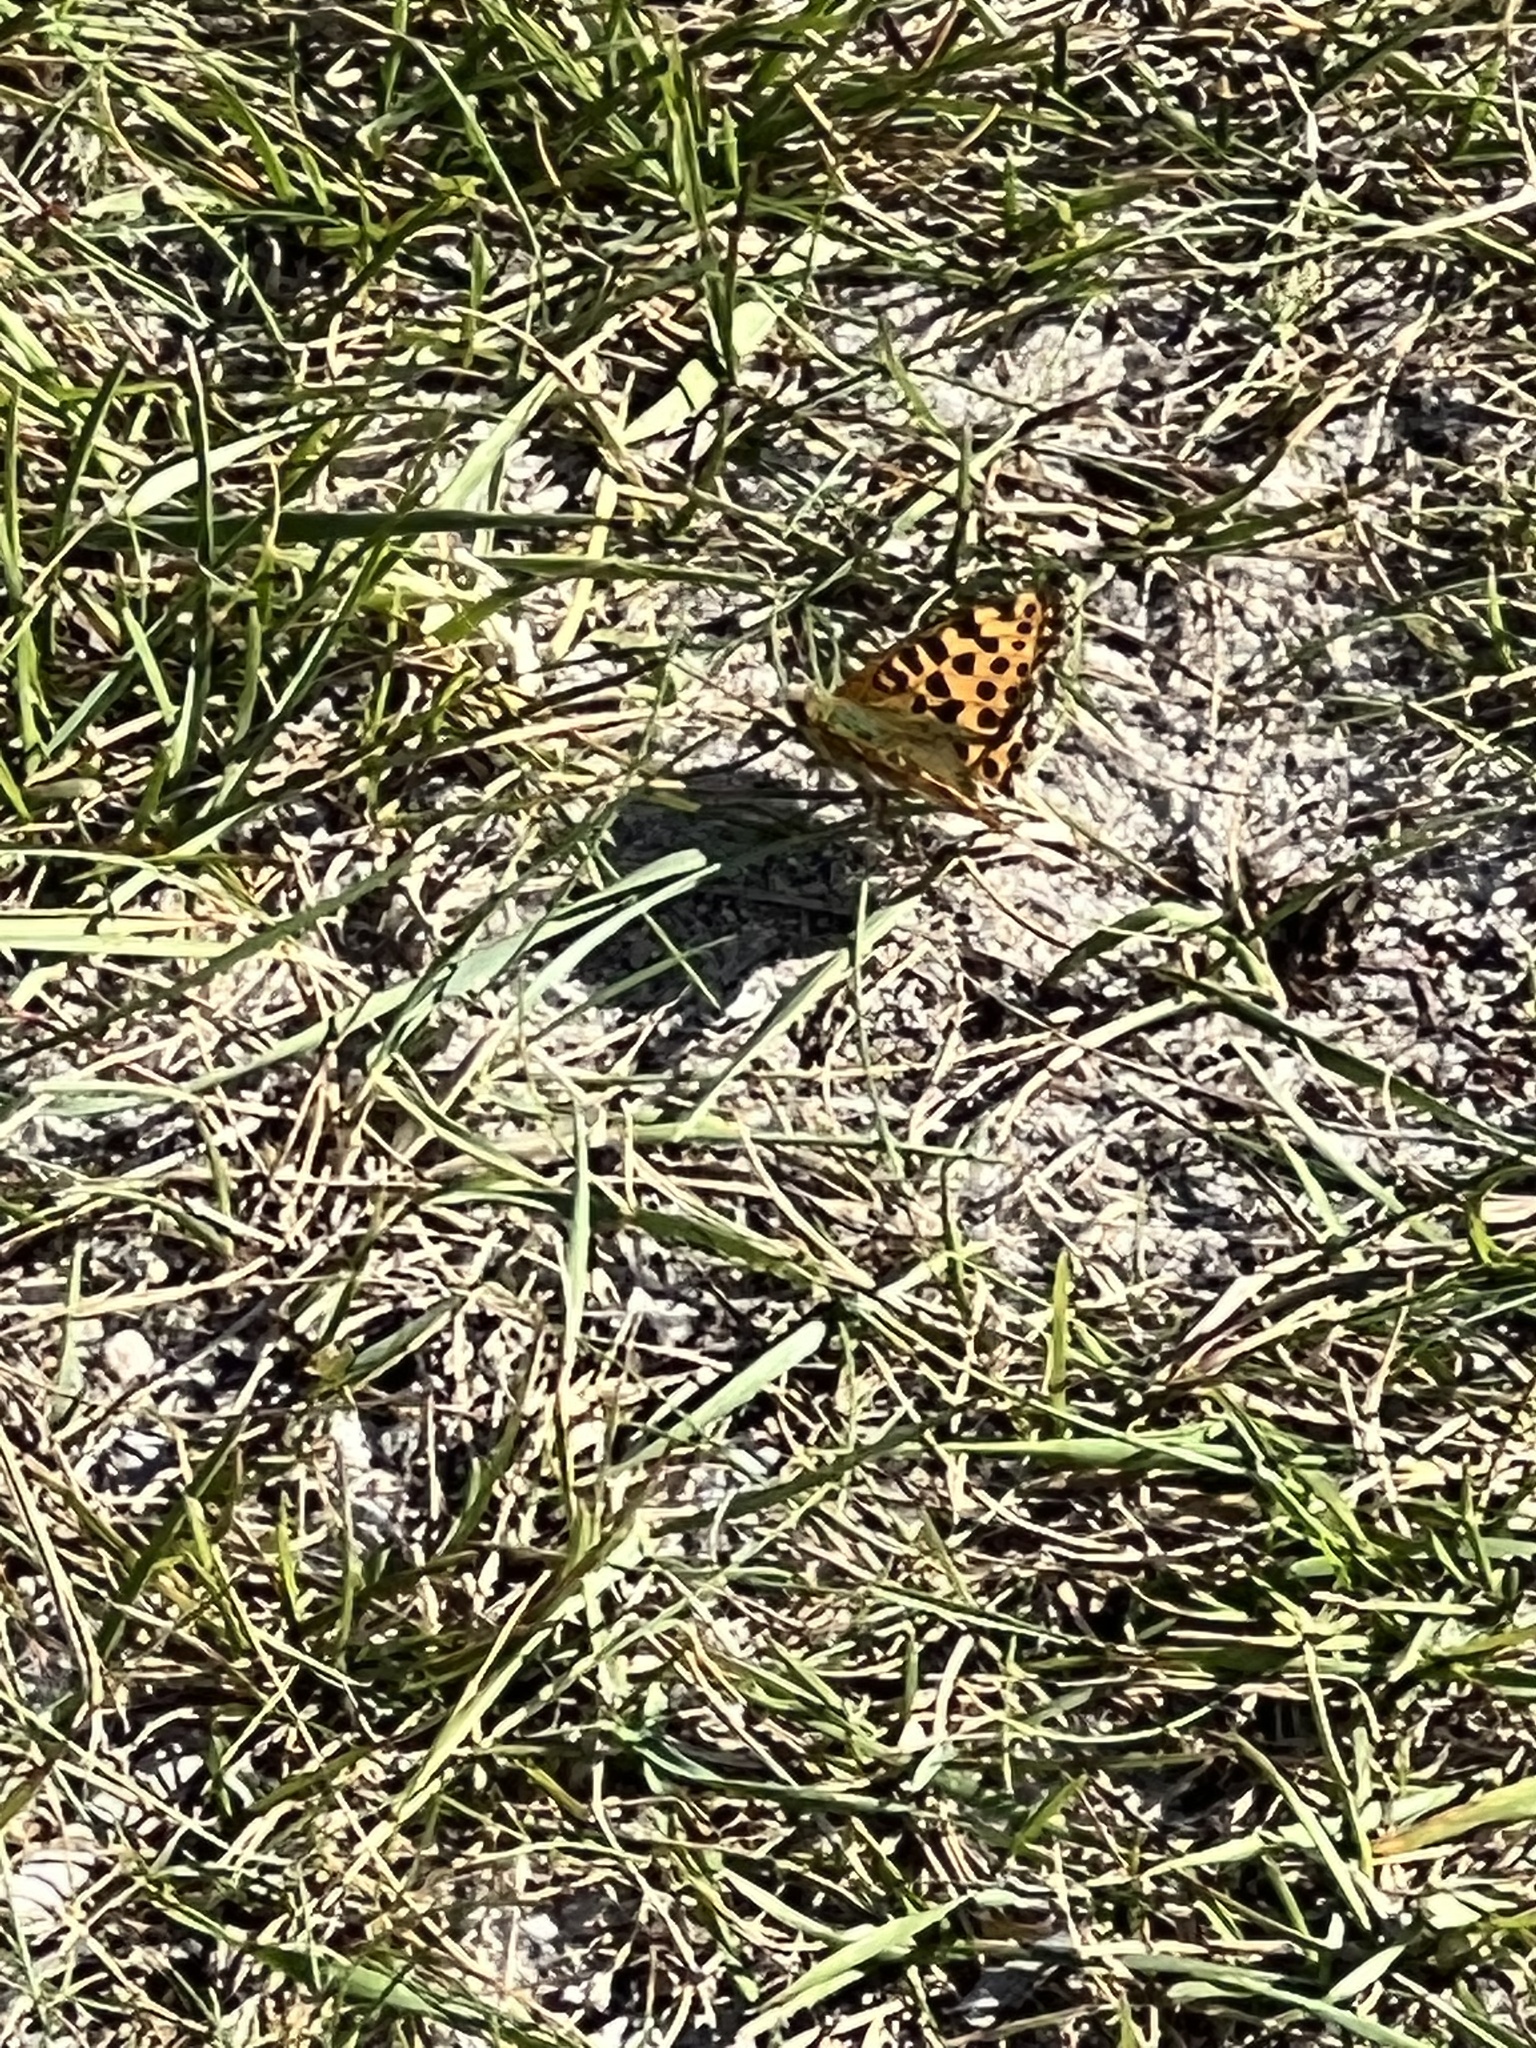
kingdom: Animalia
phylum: Arthropoda
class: Insecta
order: Lepidoptera
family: Nymphalidae
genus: Issoria
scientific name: Issoria lathonia
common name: Queen of spain fritillary
